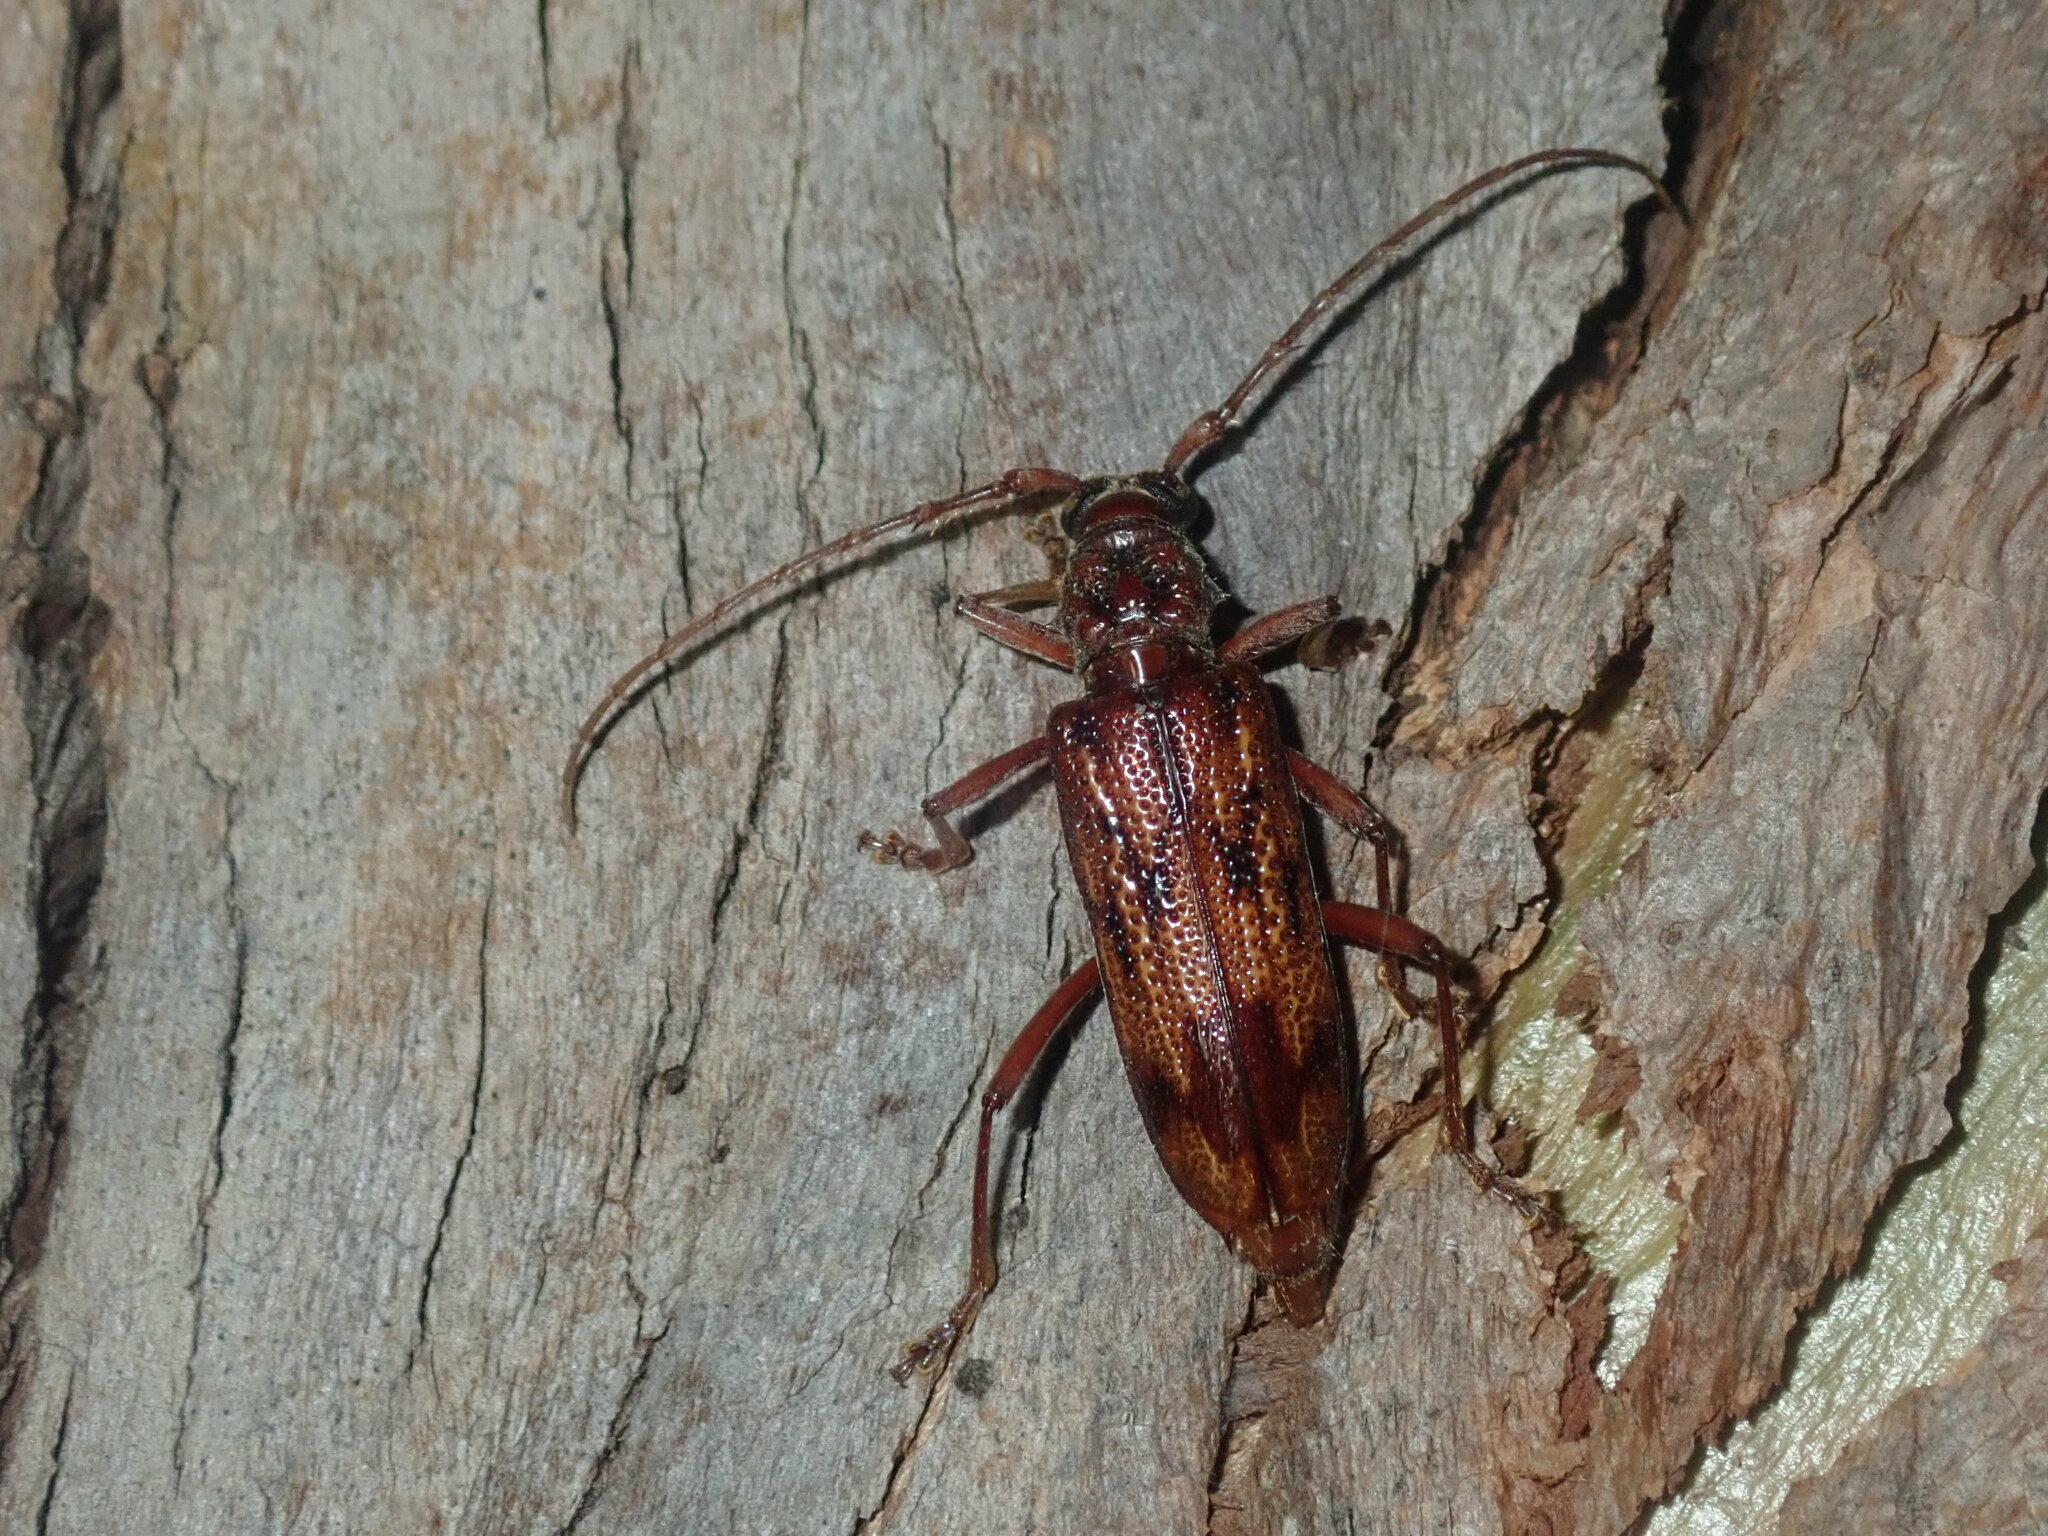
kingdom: Animalia
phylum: Arthropoda
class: Insecta
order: Coleoptera
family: Cerambycidae
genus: Phoracantha
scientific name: Phoracantha synonyma
